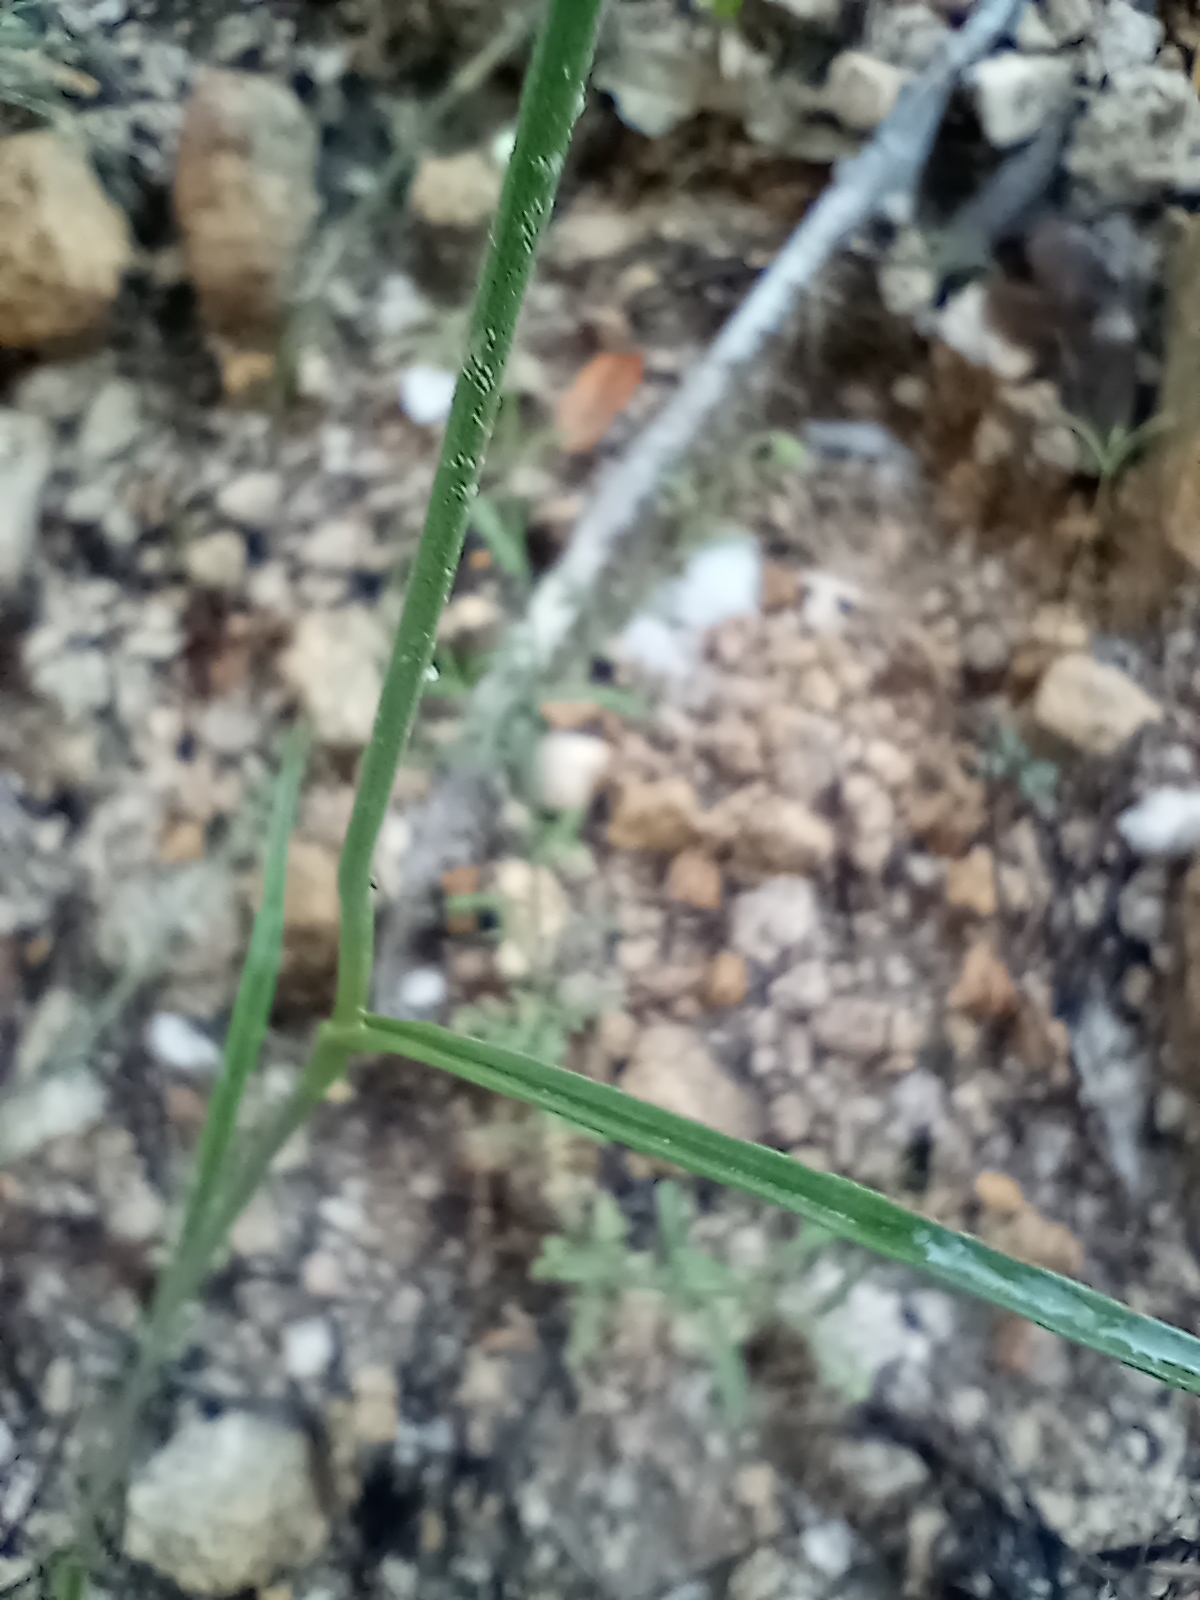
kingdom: Plantae
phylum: Tracheophyta
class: Liliopsida
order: Commelinales
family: Commelinaceae
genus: Tradescantia
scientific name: Tradescantia pinetorum
